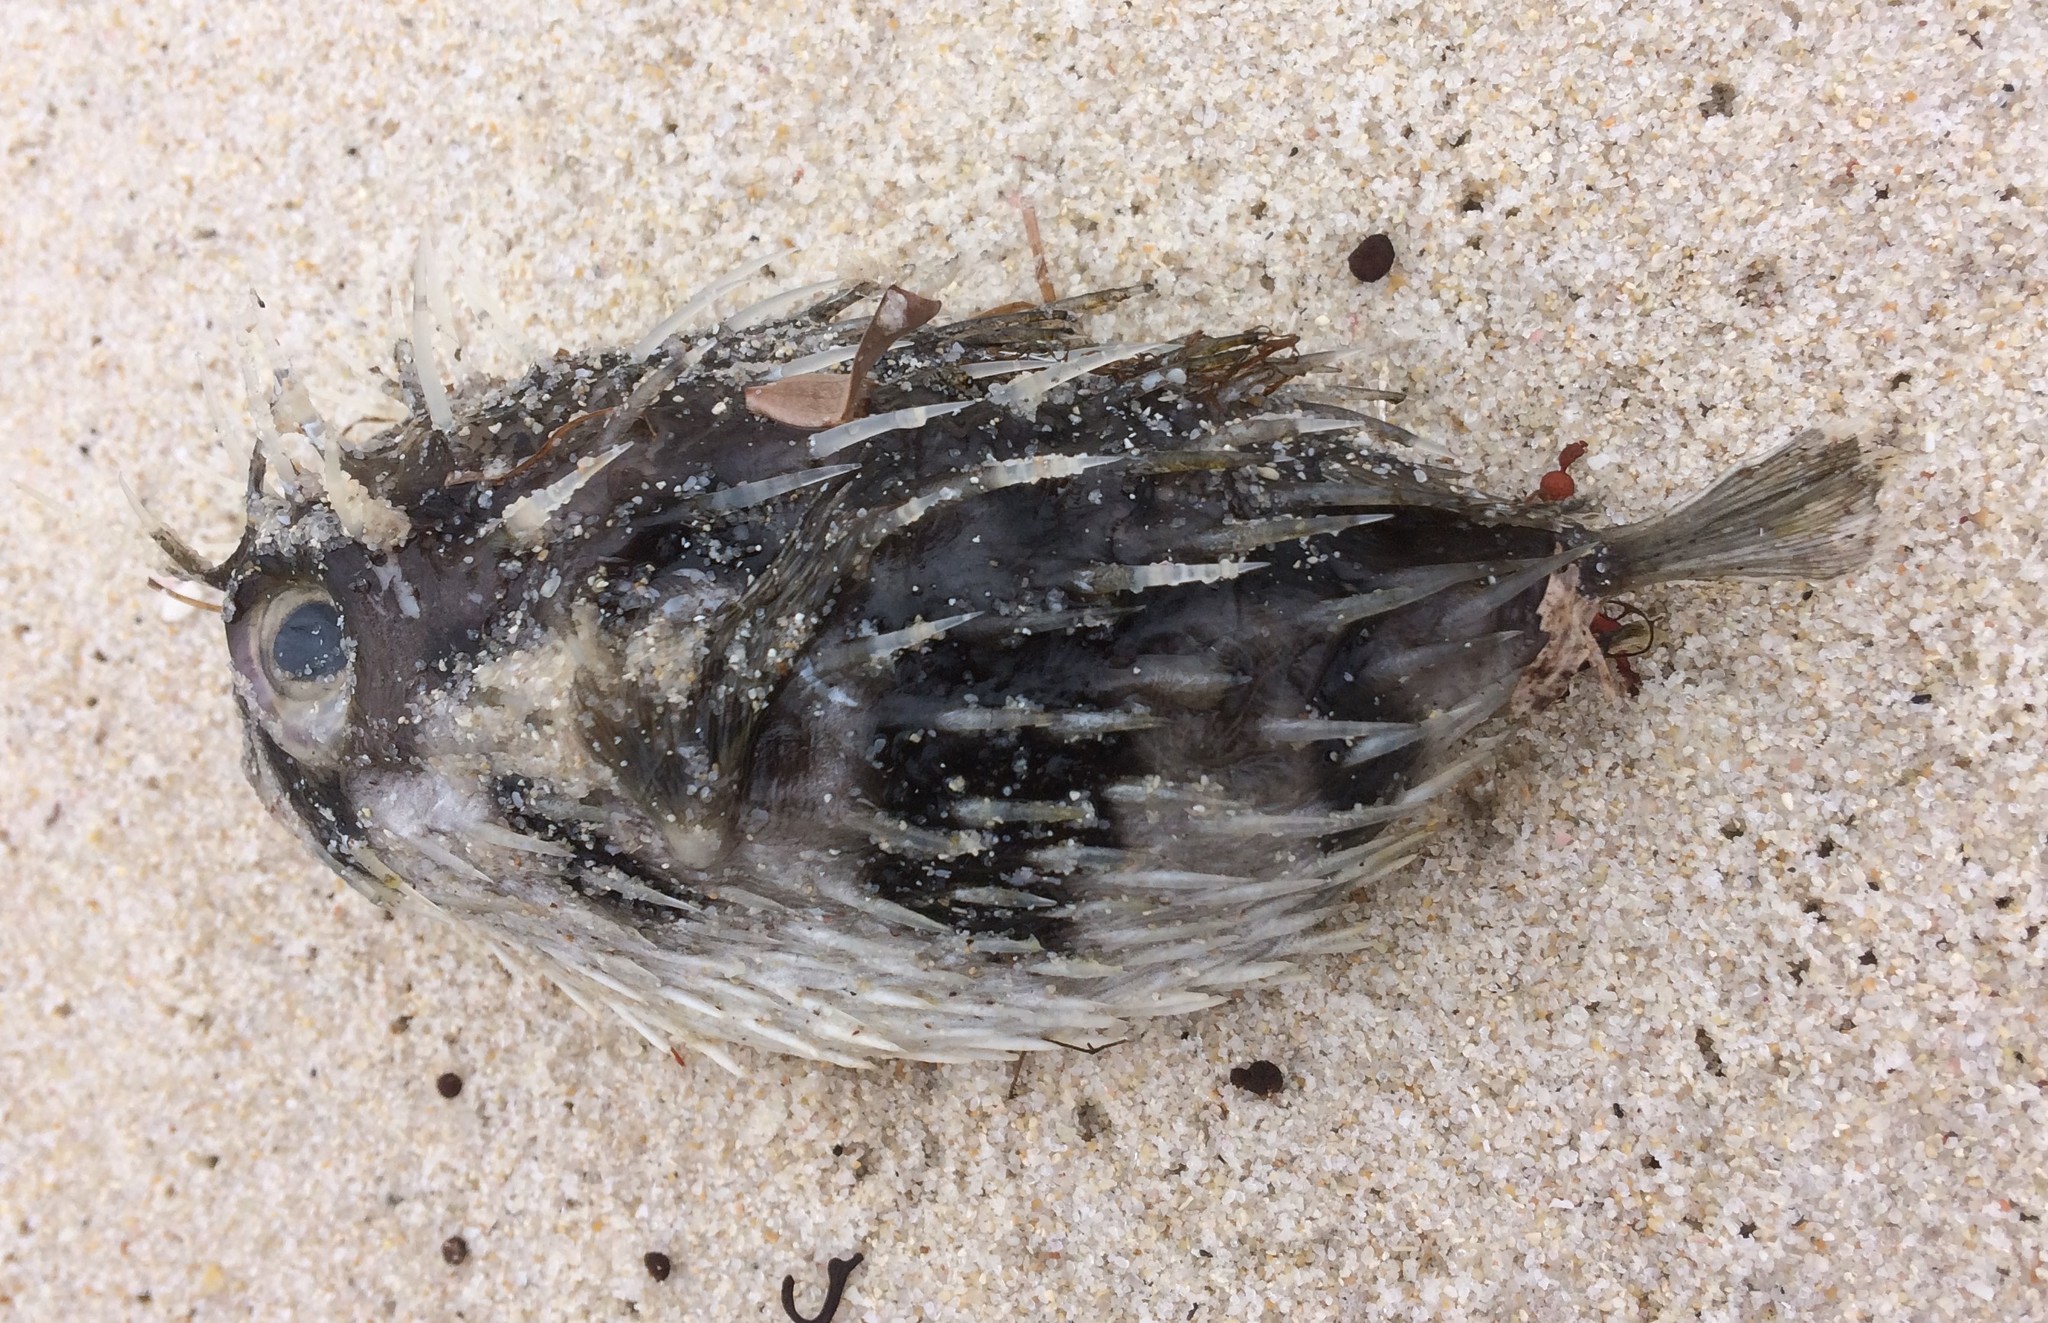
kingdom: Animalia
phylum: Chordata
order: Tetraodontiformes
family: Diodontidae
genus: Diodon
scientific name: Diodon nicthemerus
